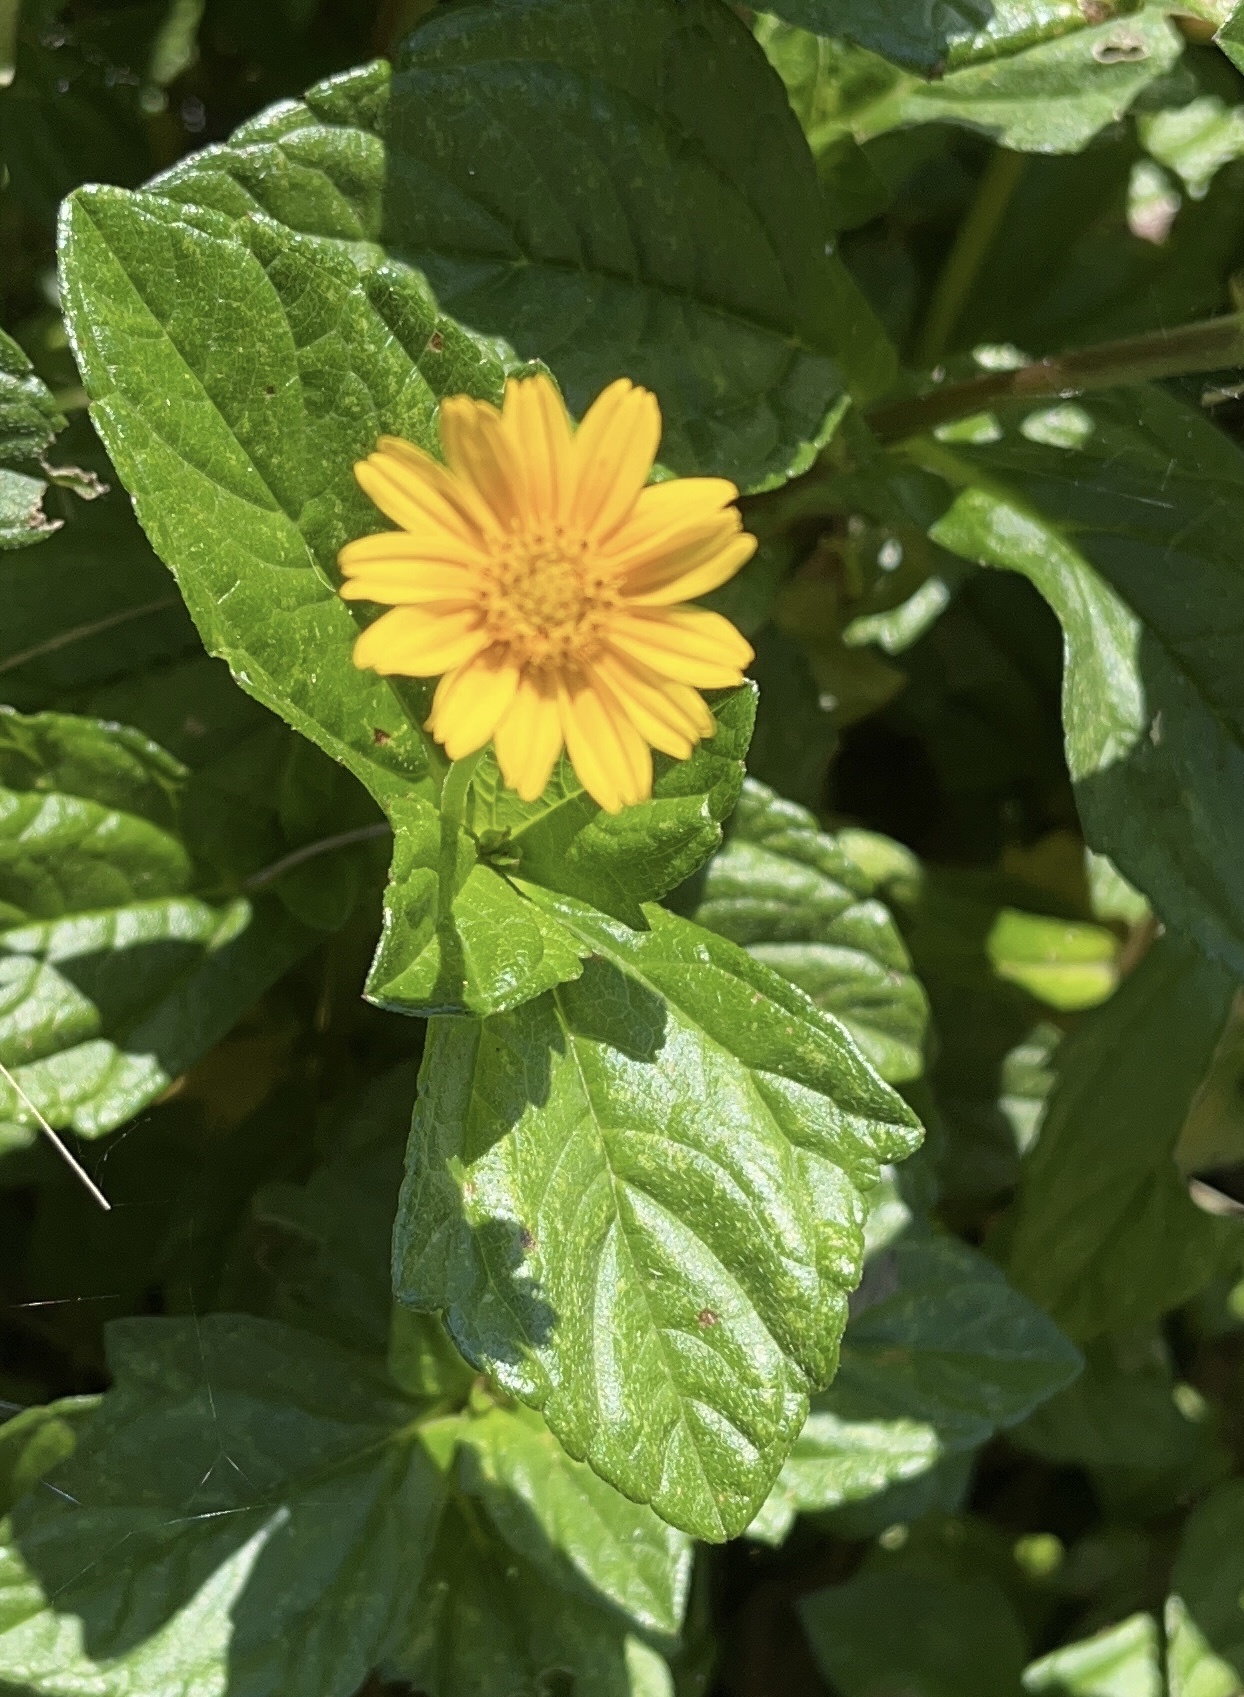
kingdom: Plantae
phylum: Tracheophyta
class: Magnoliopsida
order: Asterales
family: Asteraceae
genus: Sphagneticola
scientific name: Sphagneticola trilobata
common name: Bay biscayne creeping-oxeye
